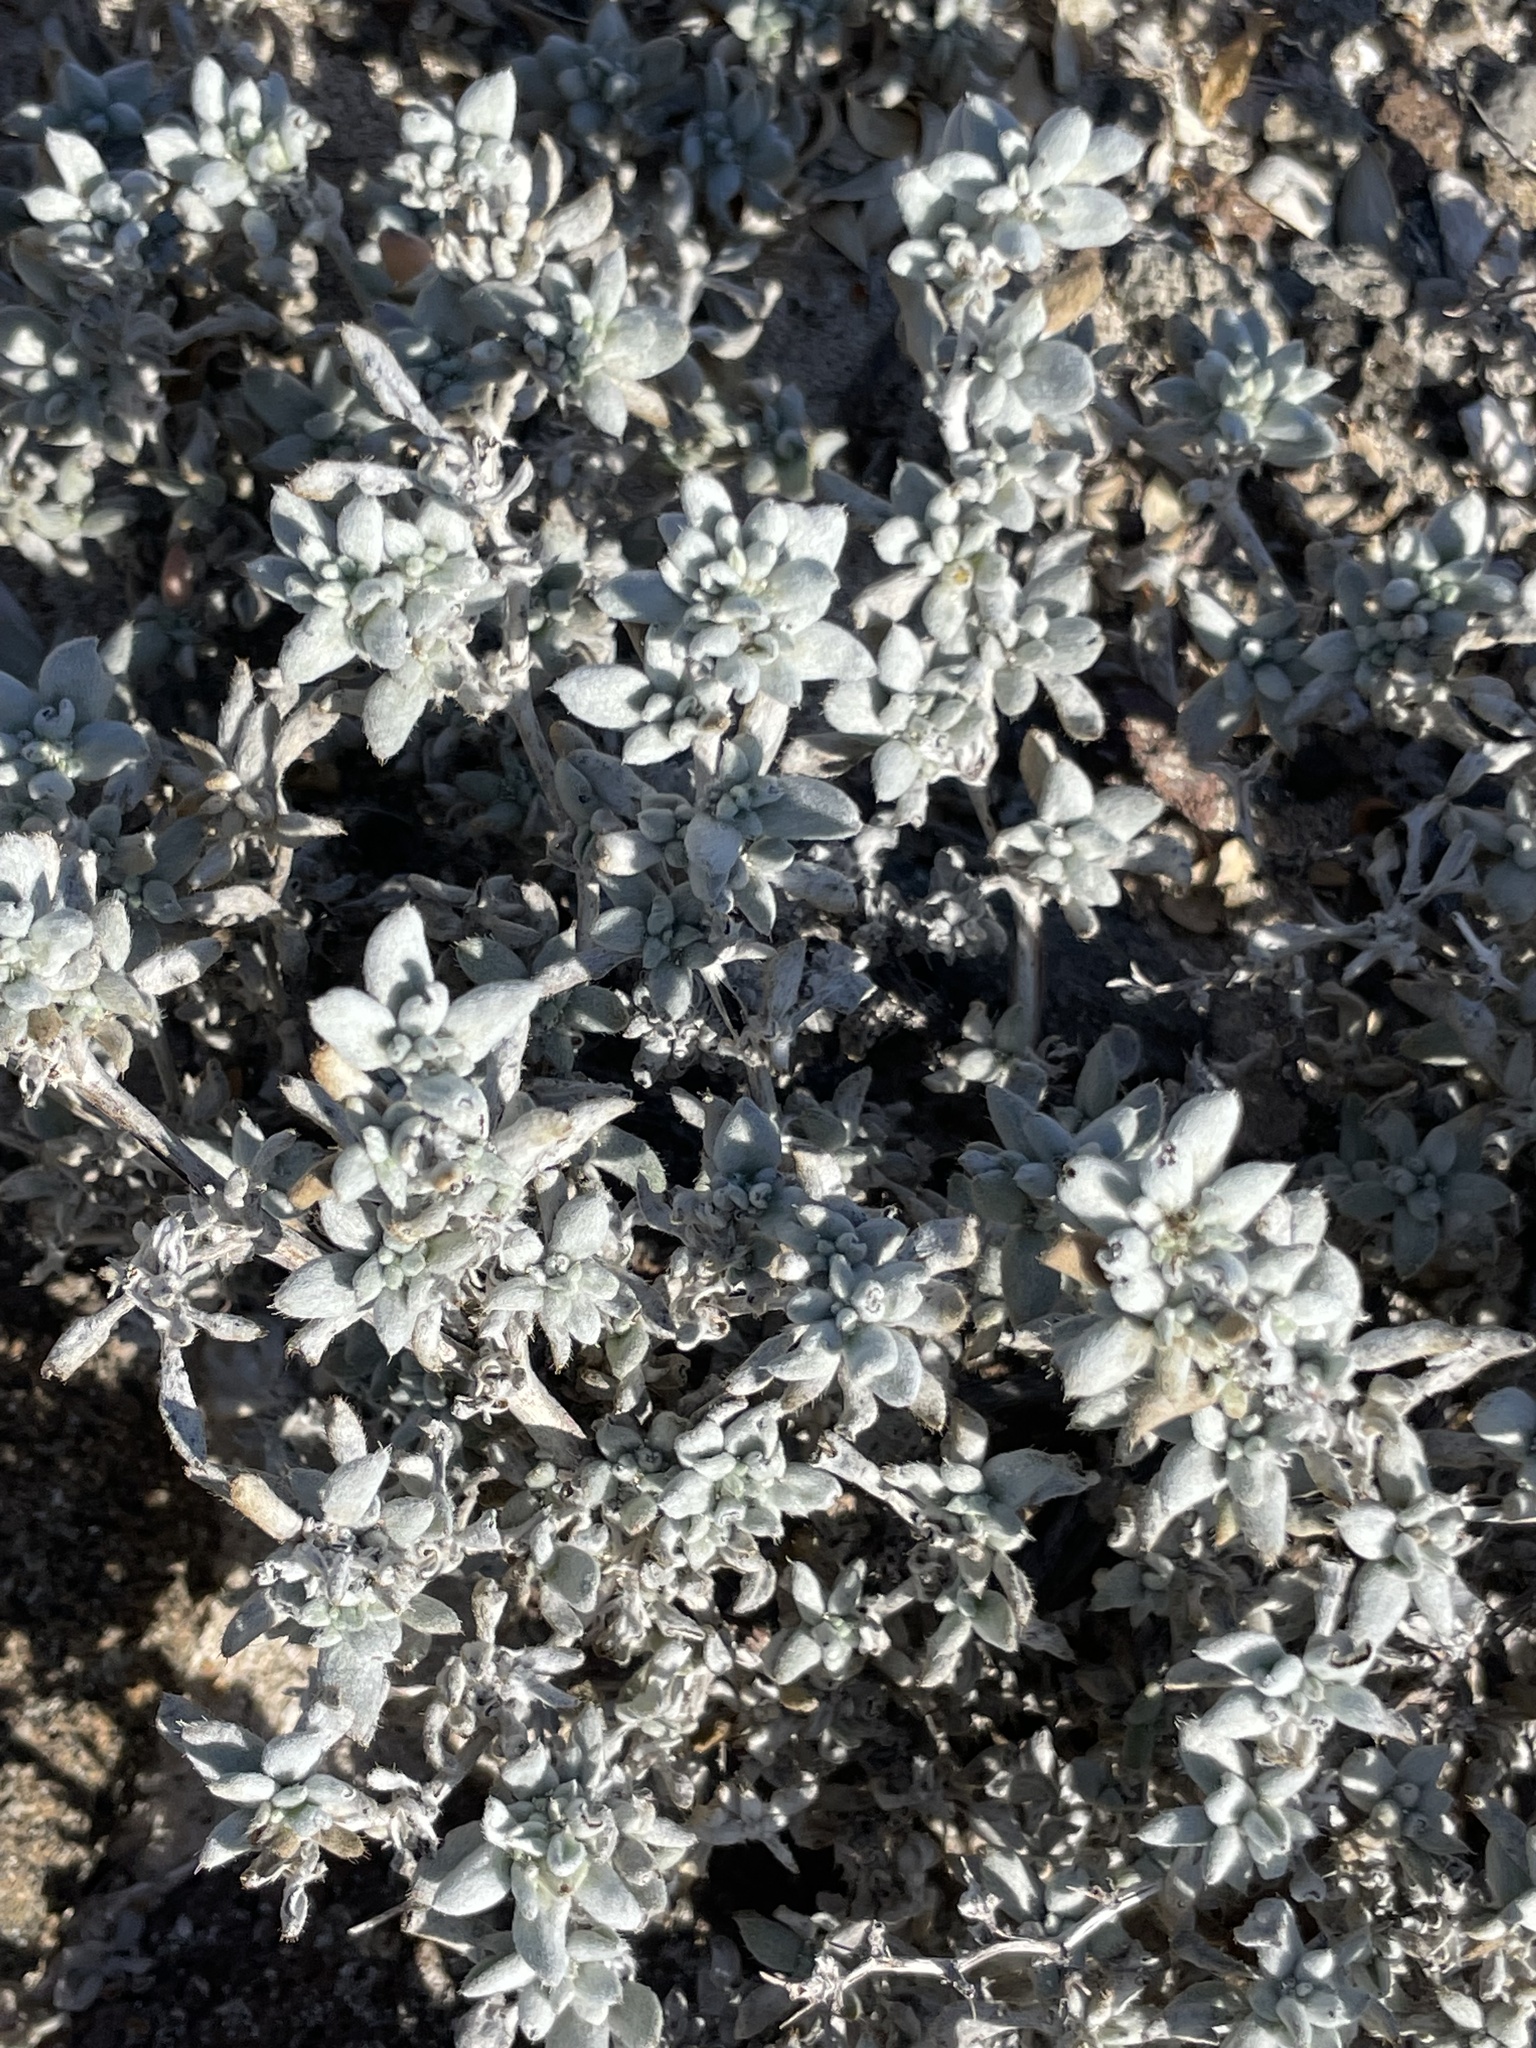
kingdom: Plantae
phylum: Tracheophyta
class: Magnoliopsida
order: Boraginales
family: Ehretiaceae
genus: Tiquilia
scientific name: Tiquilia canescens
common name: Hairy tiquilia
